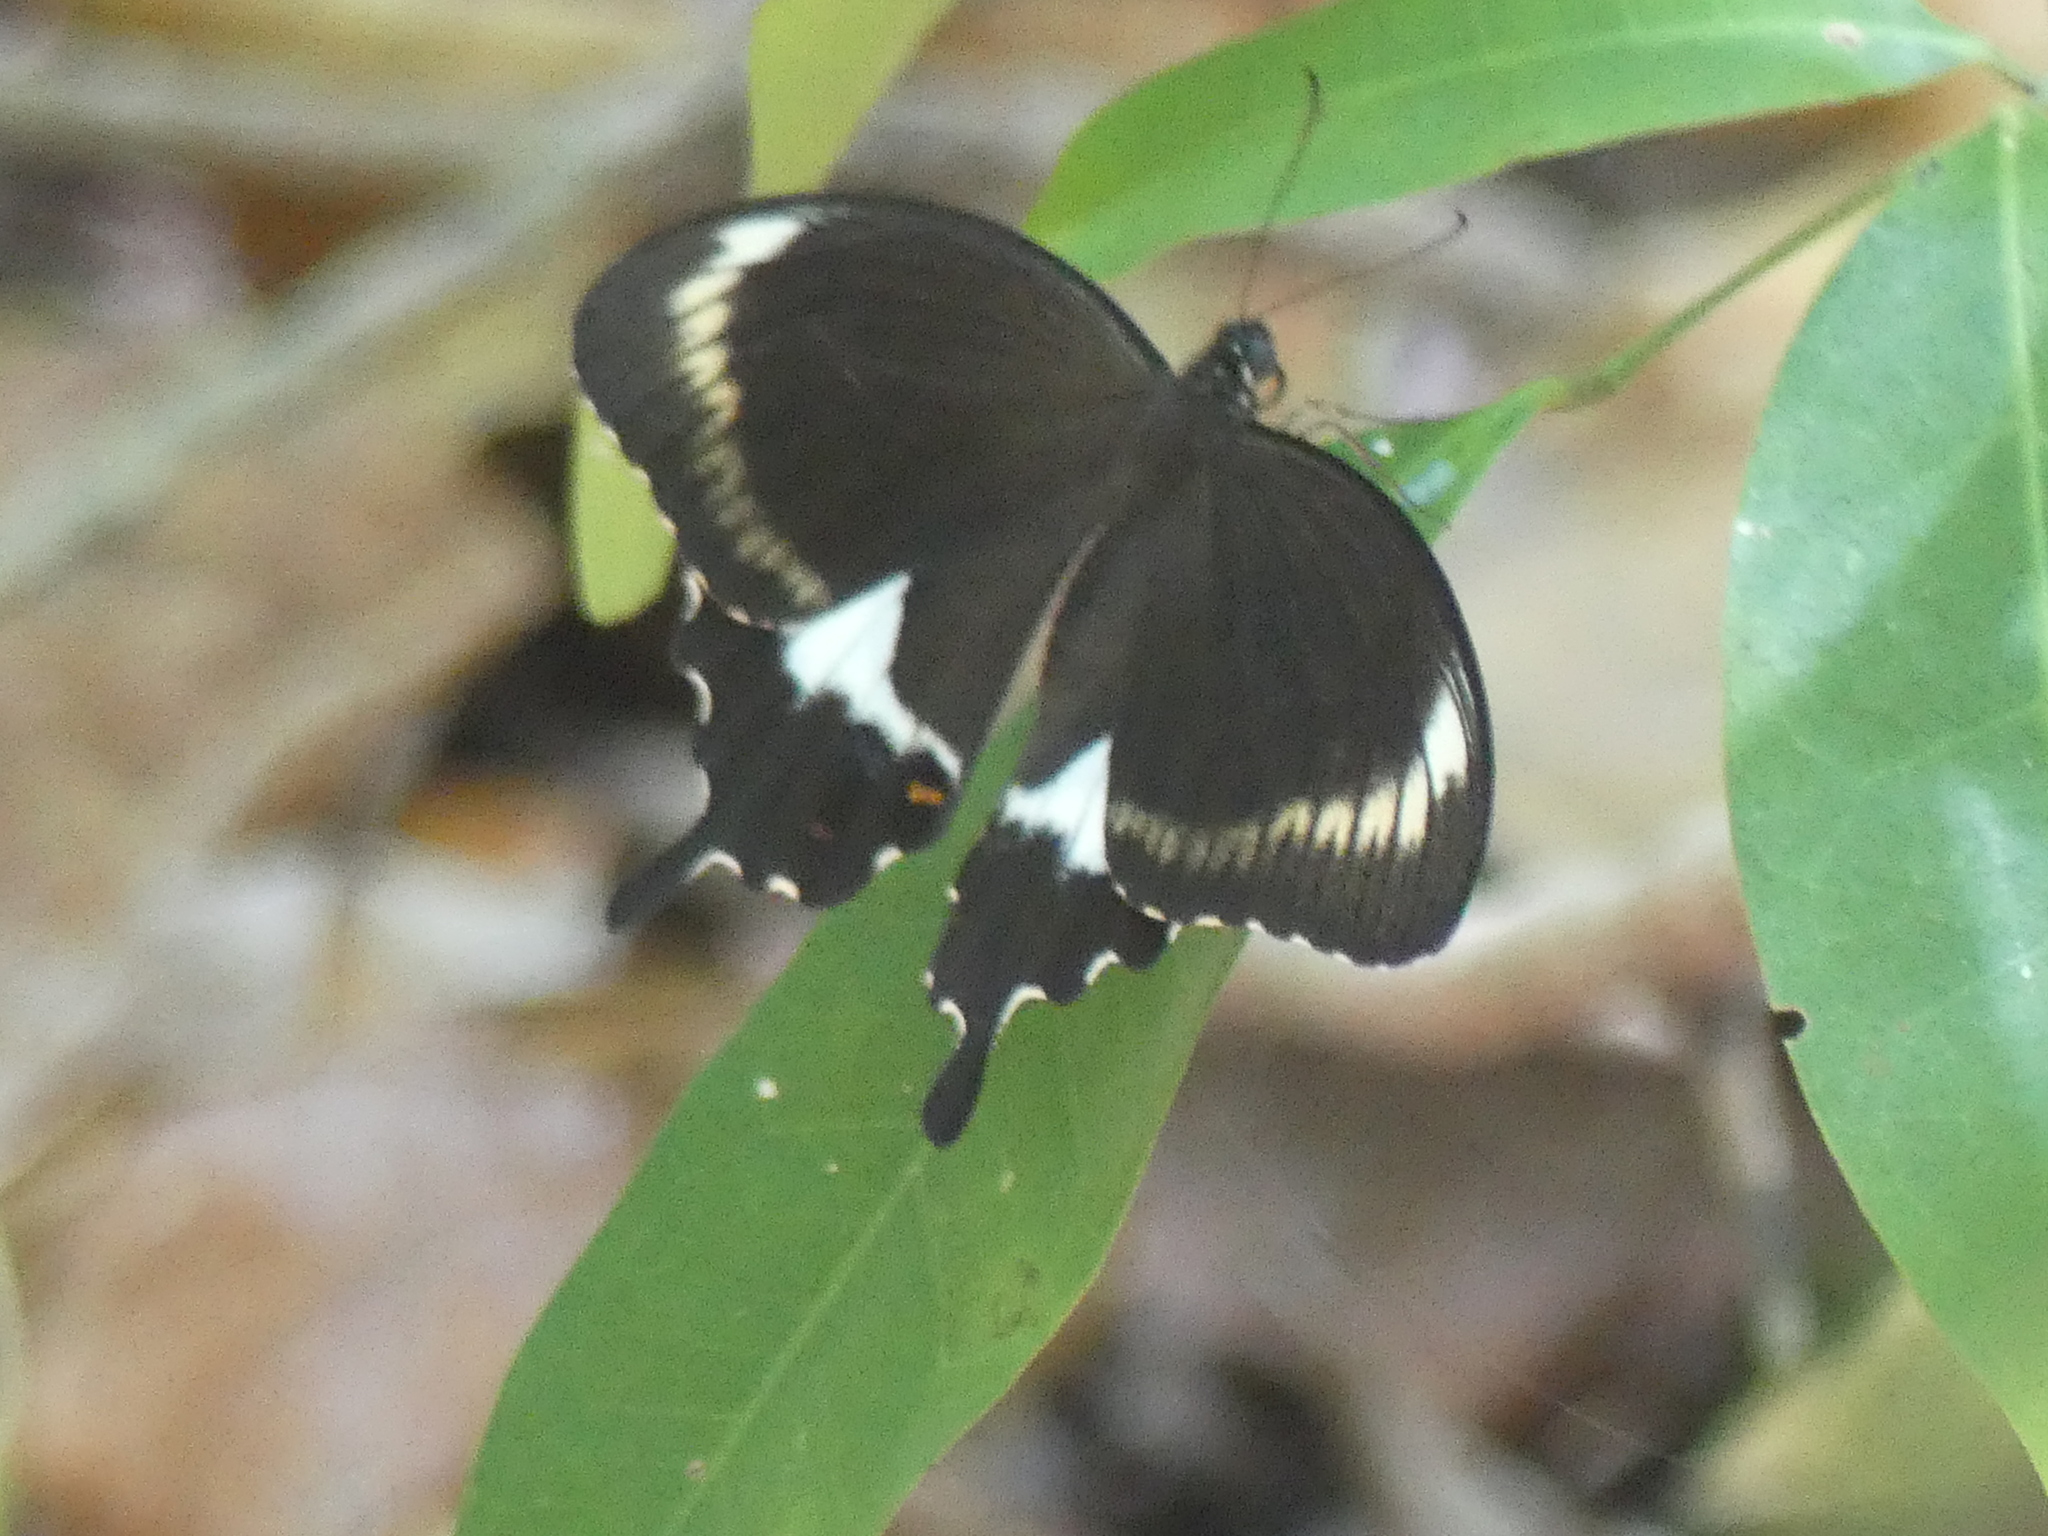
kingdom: Animalia
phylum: Arthropoda
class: Insecta
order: Lepidoptera
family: Lycaenidae
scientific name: Lycaenidae
